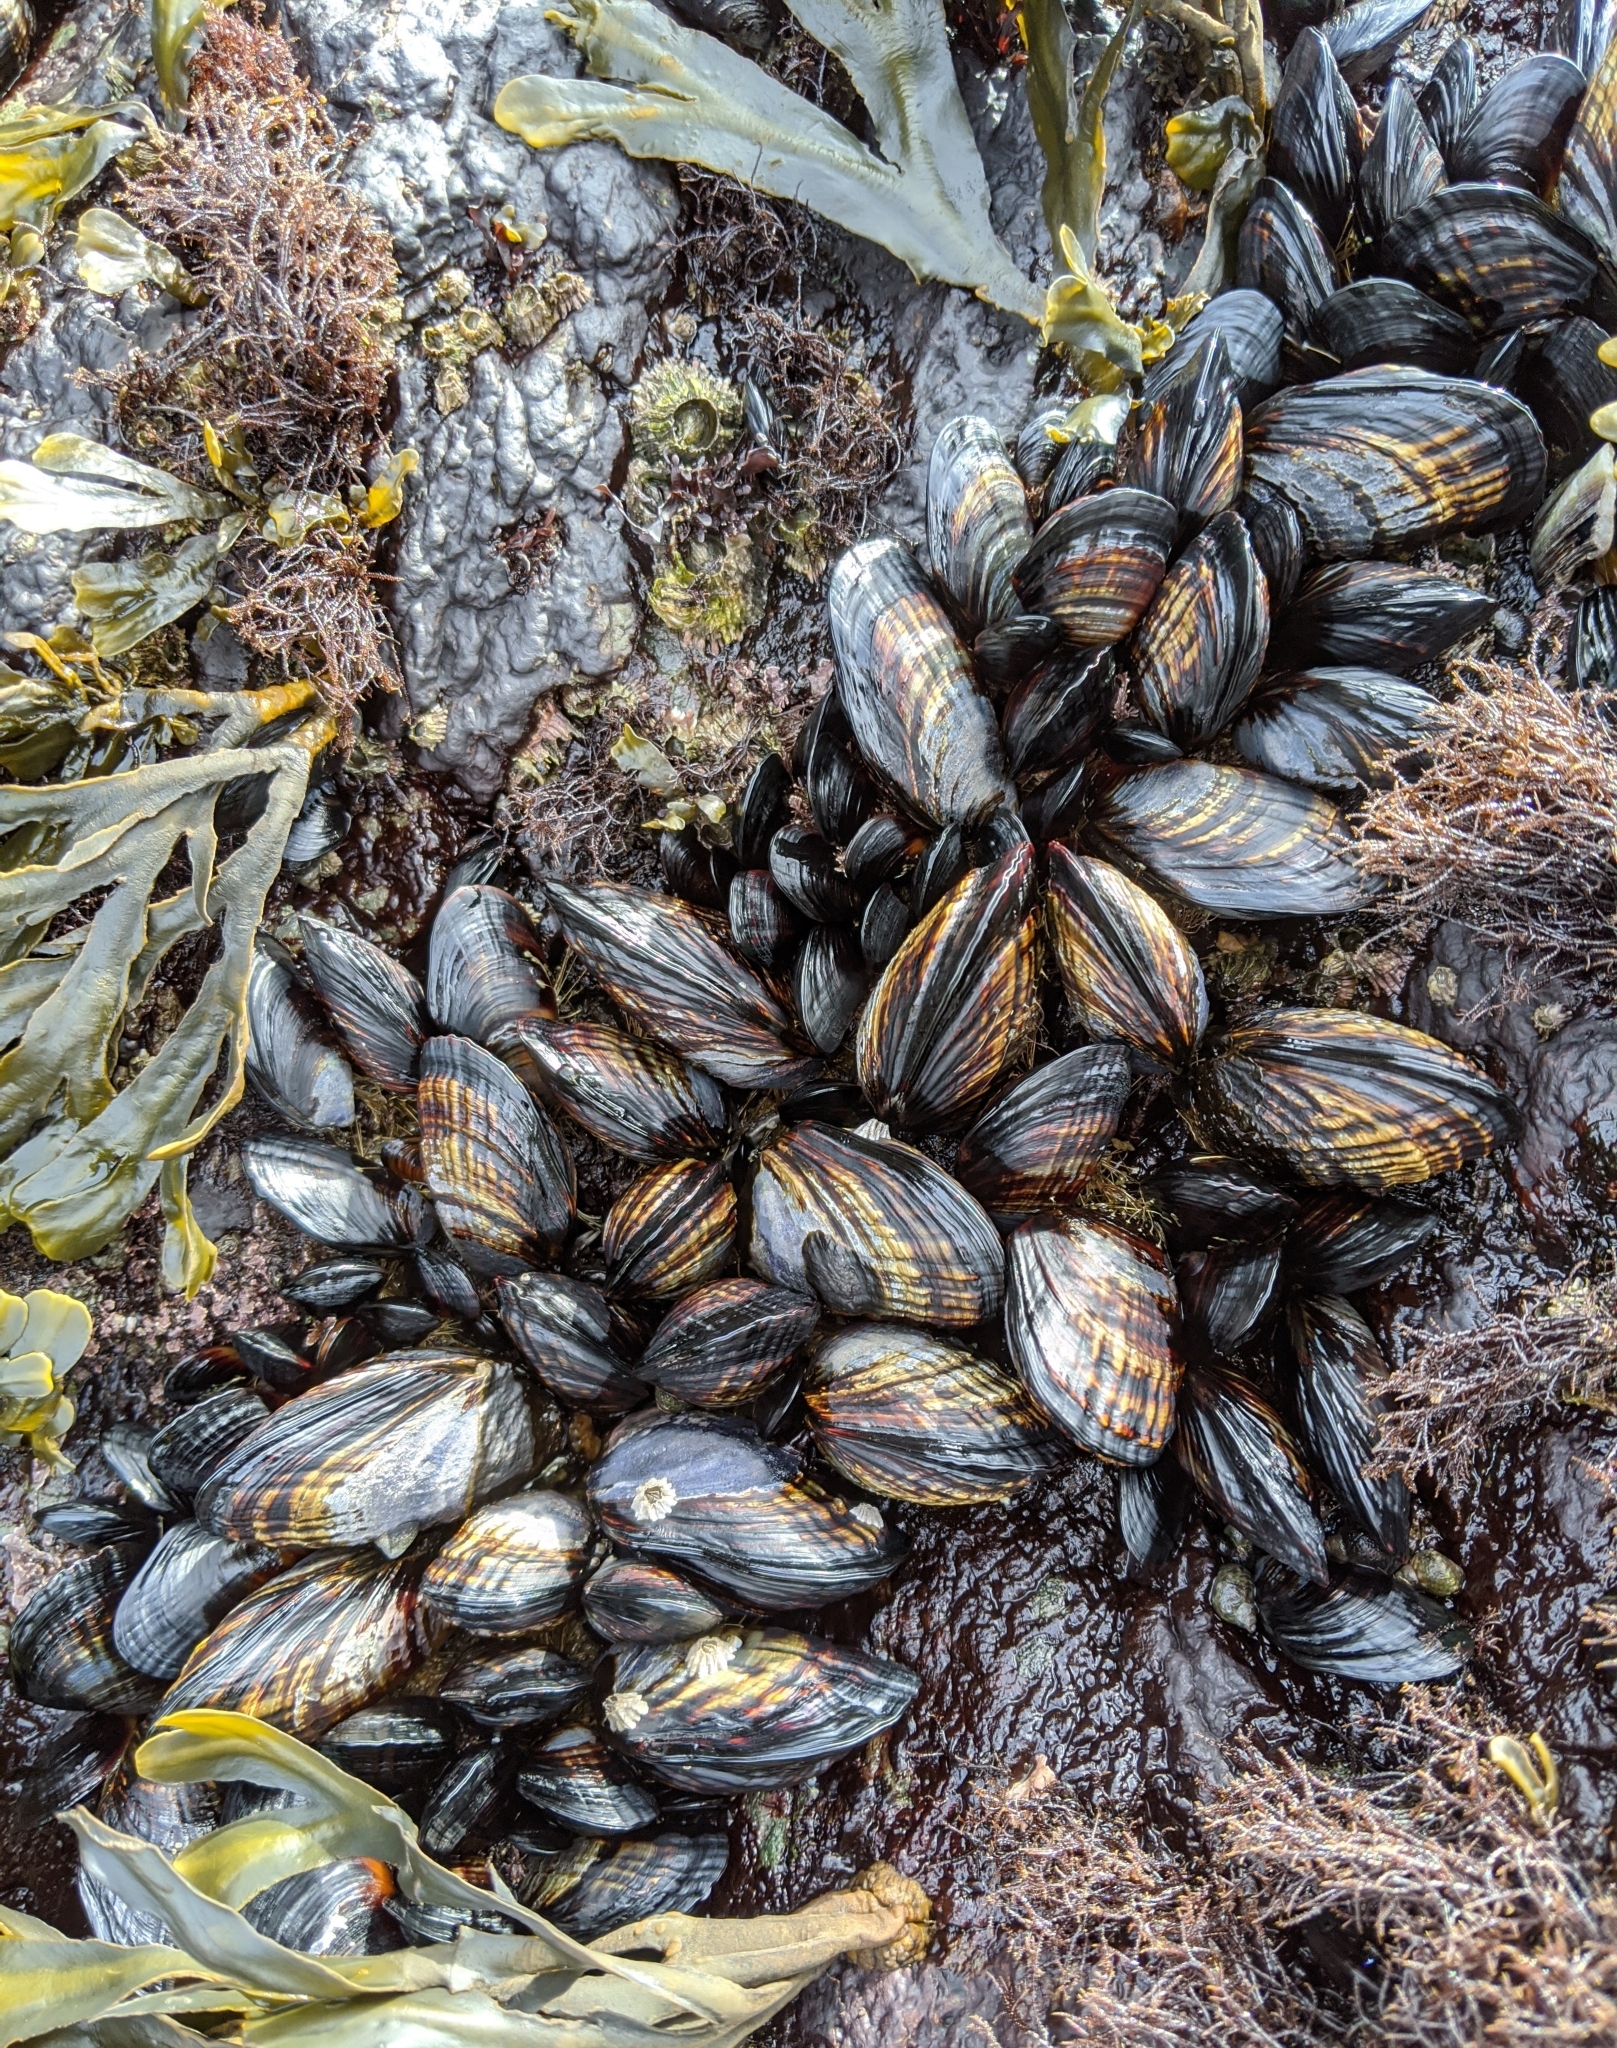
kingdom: Animalia
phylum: Mollusca
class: Bivalvia
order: Mytilida
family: Mytilidae
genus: Mytilus
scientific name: Mytilus californianus
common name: California mussel
